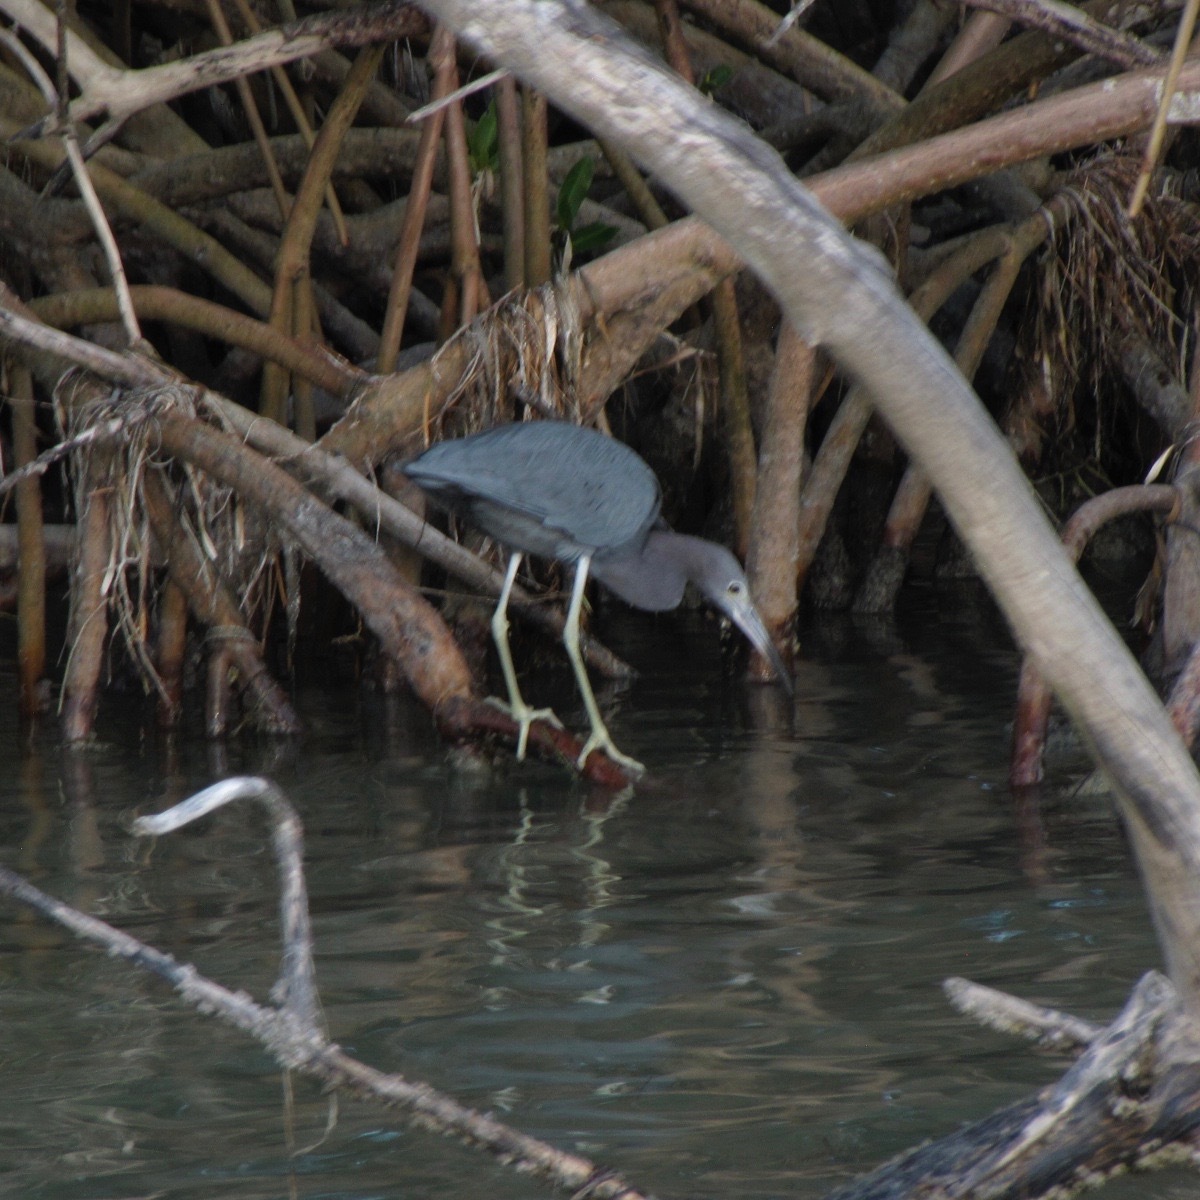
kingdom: Animalia
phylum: Chordata
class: Aves
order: Pelecaniformes
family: Ardeidae
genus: Egretta
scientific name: Egretta caerulea
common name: Little blue heron
